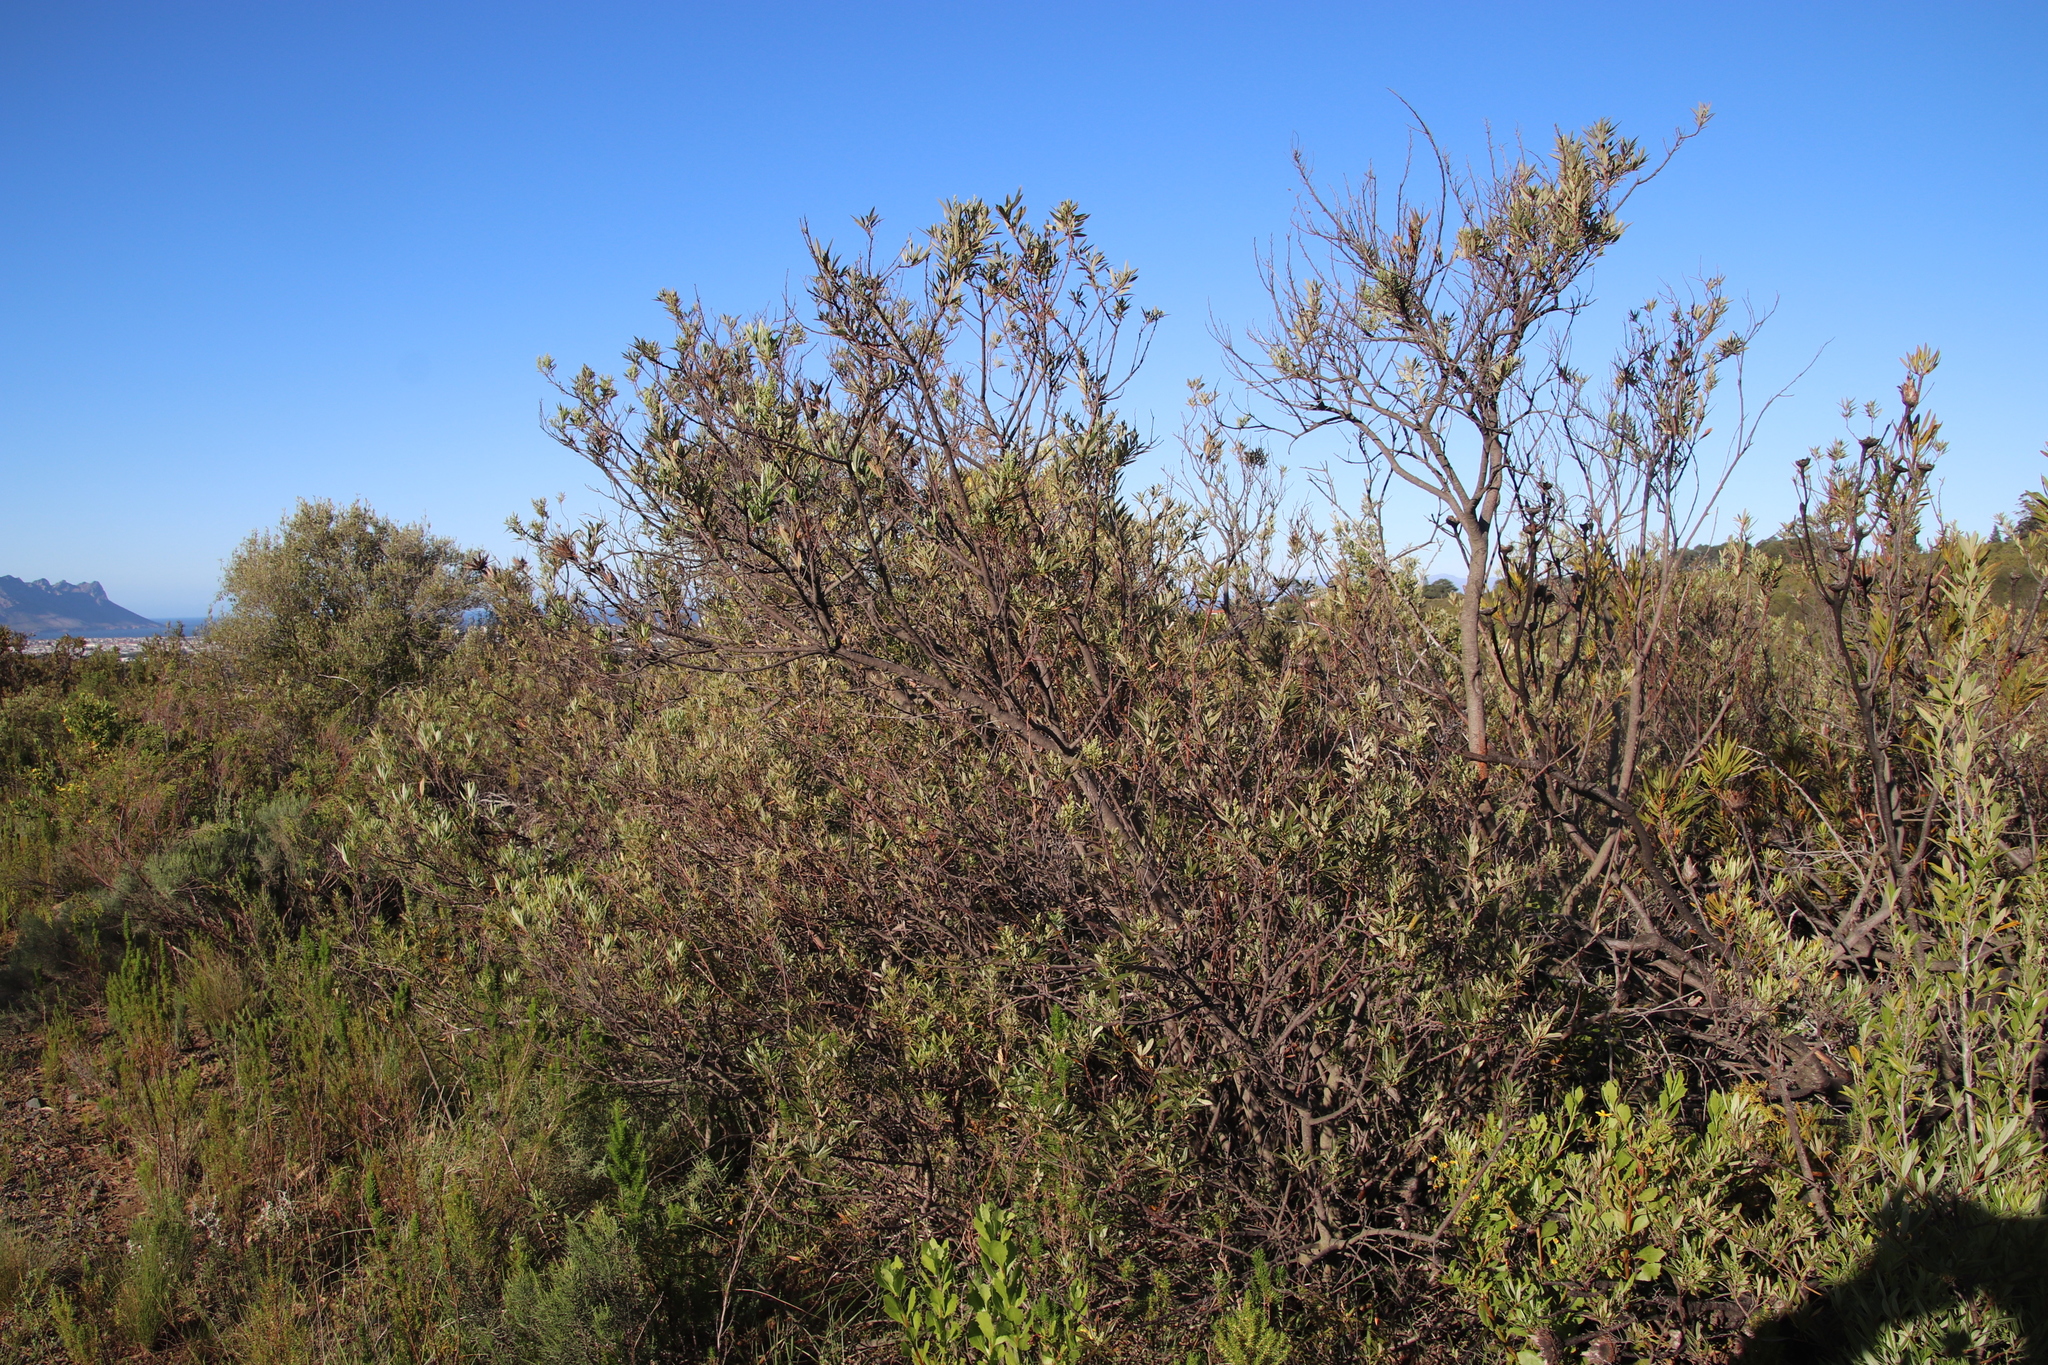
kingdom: Plantae
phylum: Tracheophyta
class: Magnoliopsida
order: Sapindales
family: Anacardiaceae
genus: Searsia
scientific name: Searsia angustifolia
